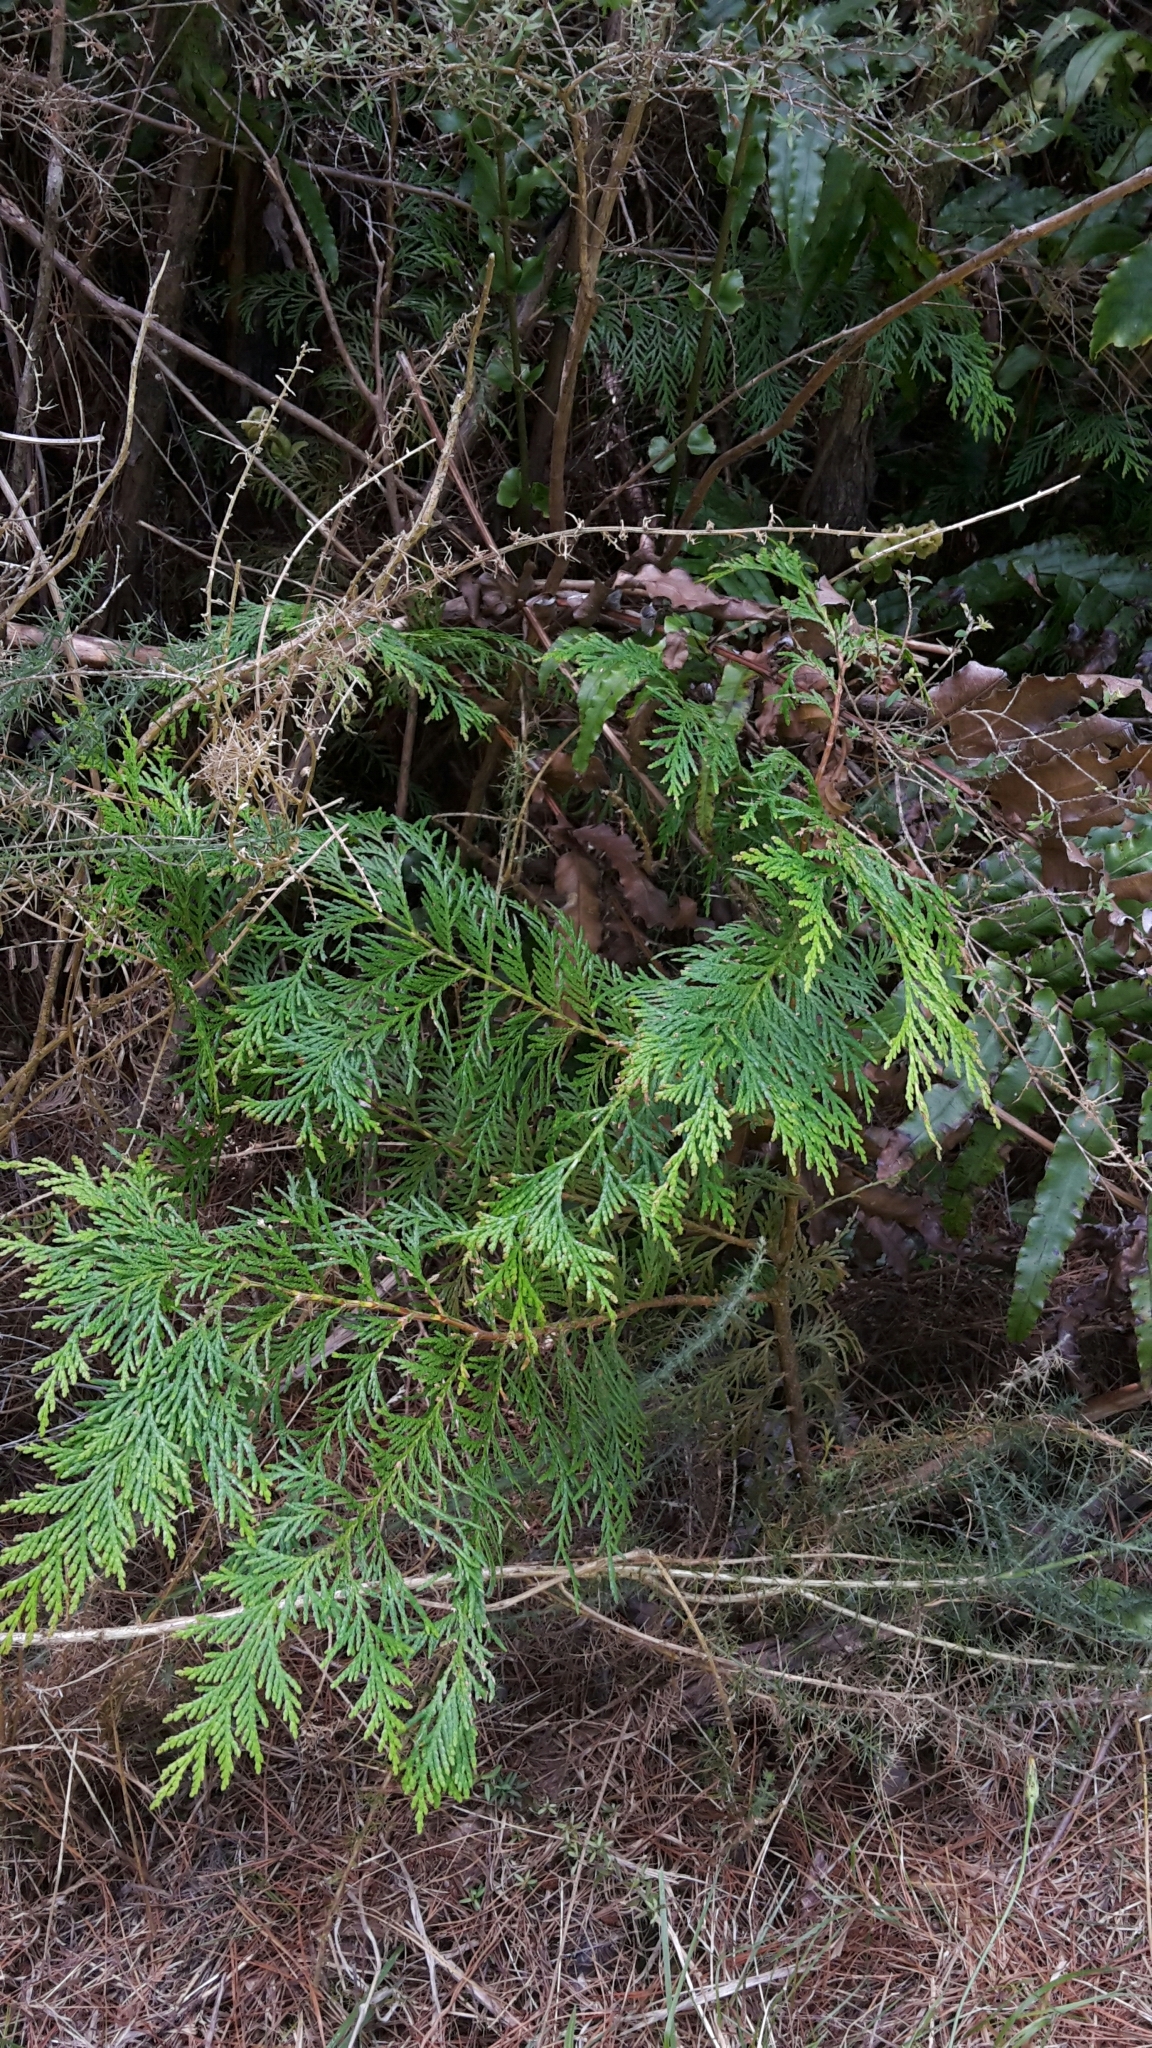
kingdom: Plantae
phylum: Tracheophyta
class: Pinopsida
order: Pinales
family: Cupressaceae
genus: Chamaecyparis
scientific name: Chamaecyparis lawsoniana
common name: Lawson's cypress
